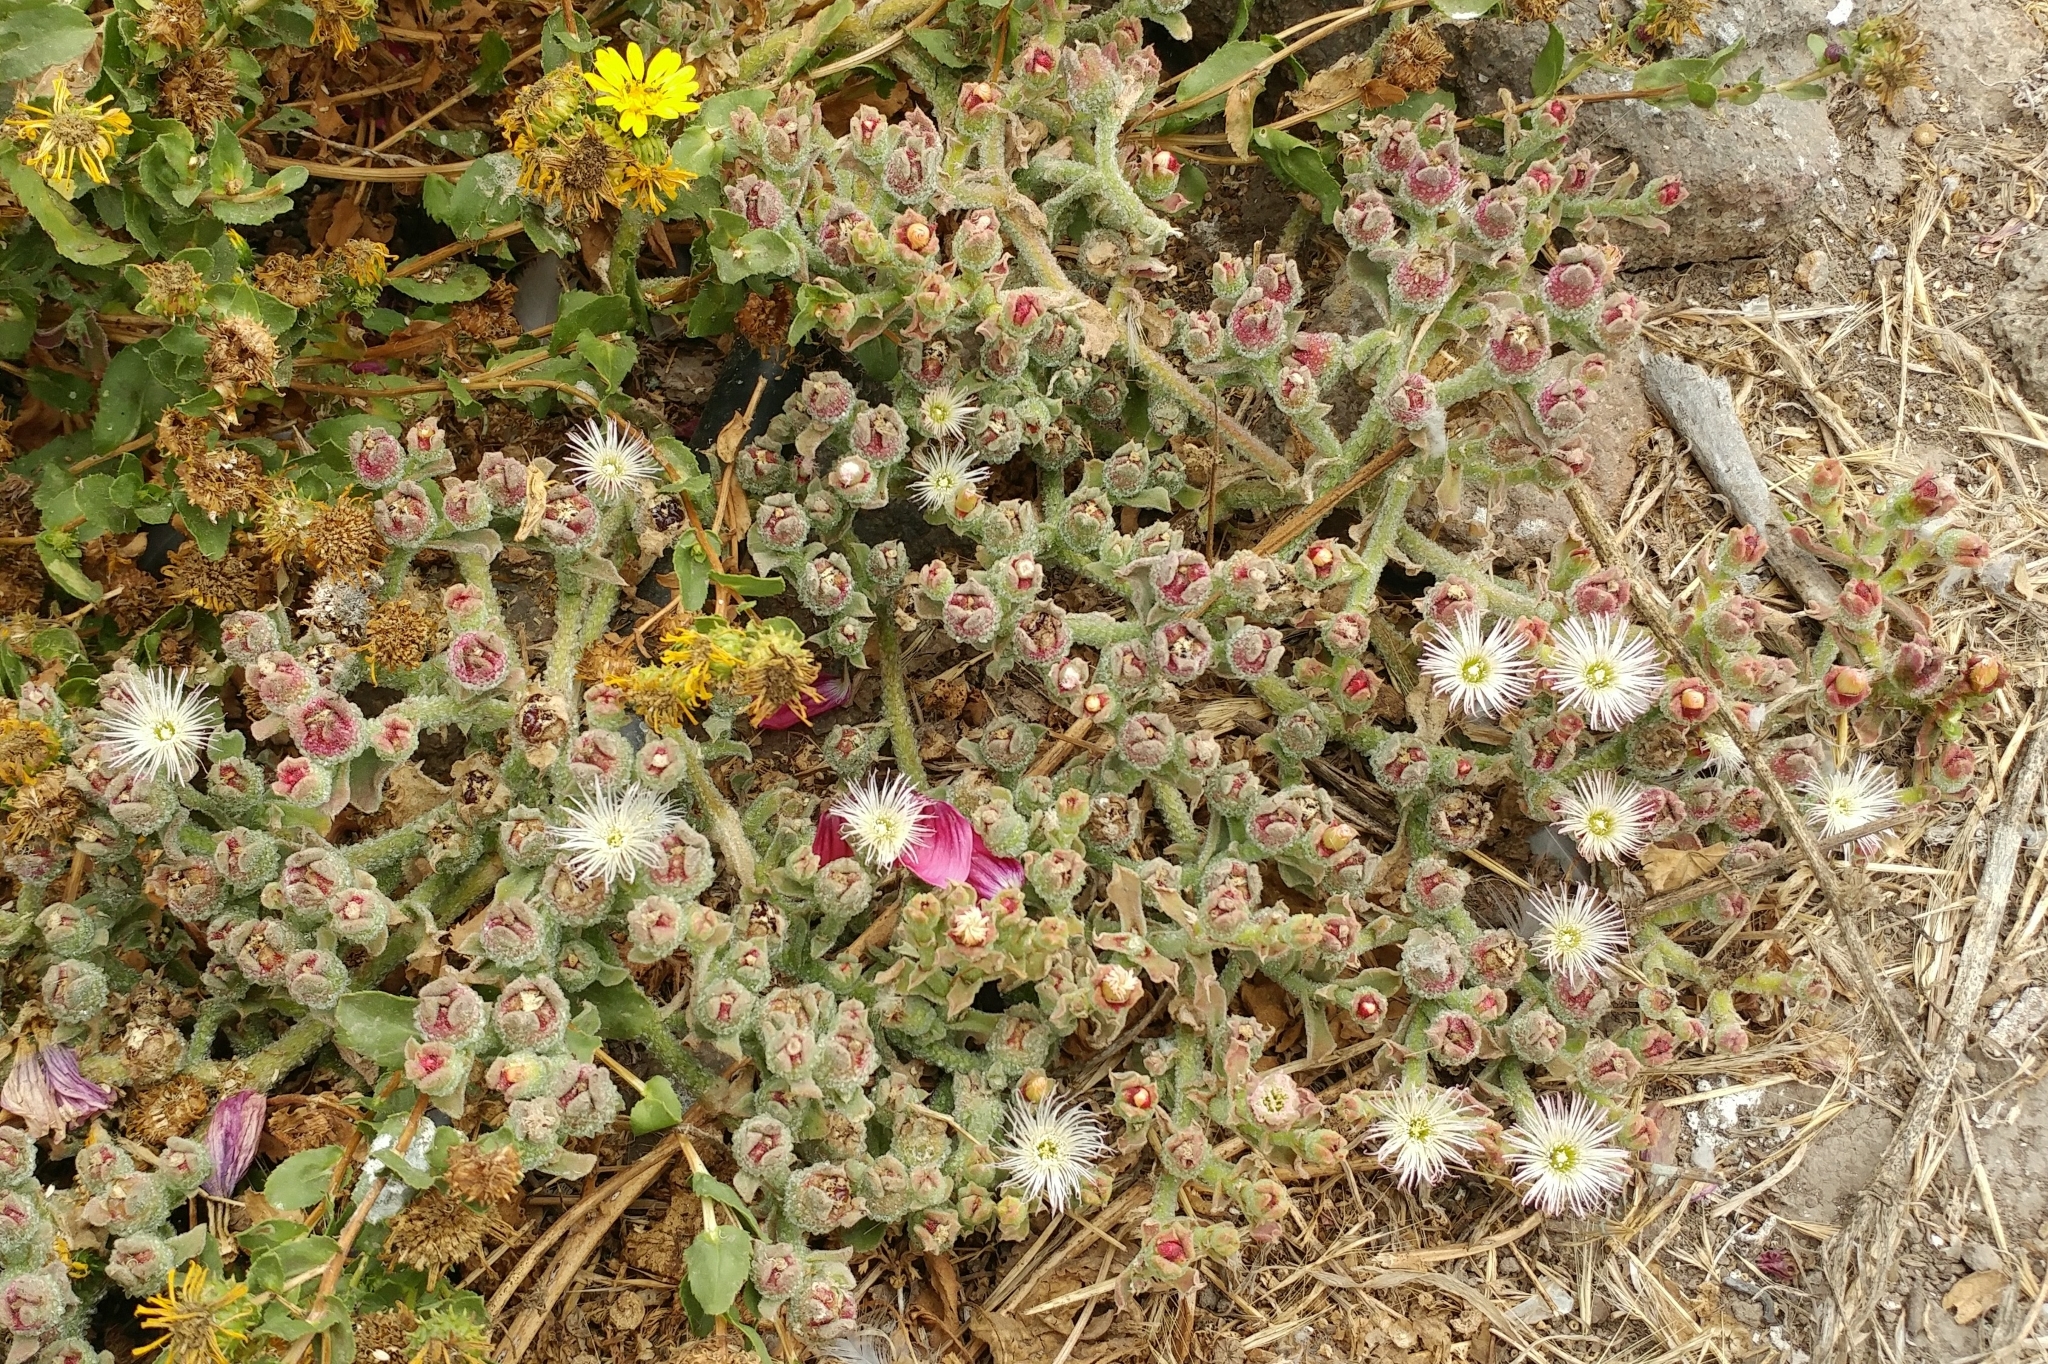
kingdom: Plantae
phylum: Tracheophyta
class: Magnoliopsida
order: Caryophyllales
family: Aizoaceae
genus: Mesembryanthemum
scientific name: Mesembryanthemum crystallinum
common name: Common iceplant
